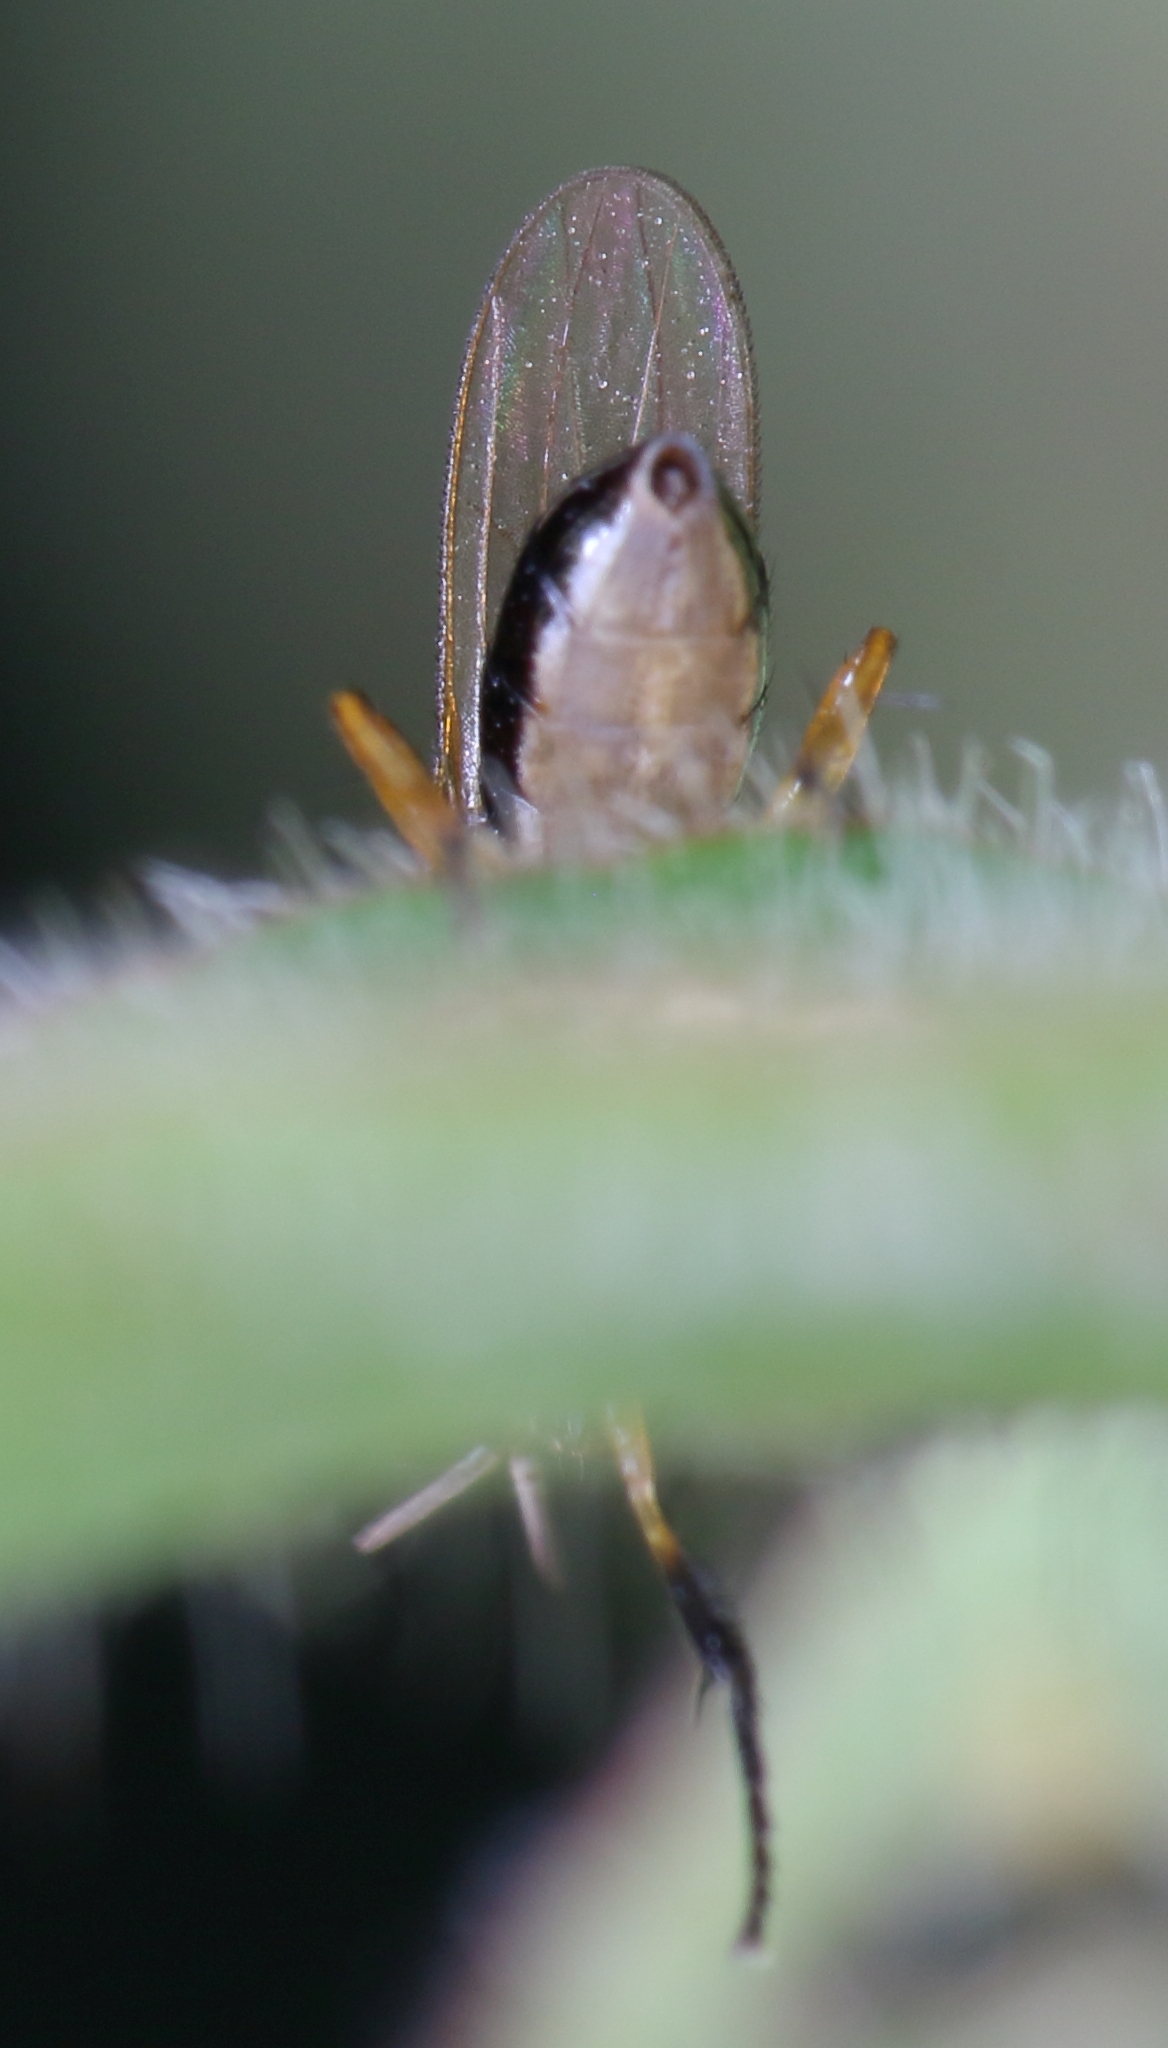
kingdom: Animalia
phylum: Arthropoda
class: Insecta
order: Diptera
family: Muscidae
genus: Anaphalantus
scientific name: Anaphalantus longicornis
